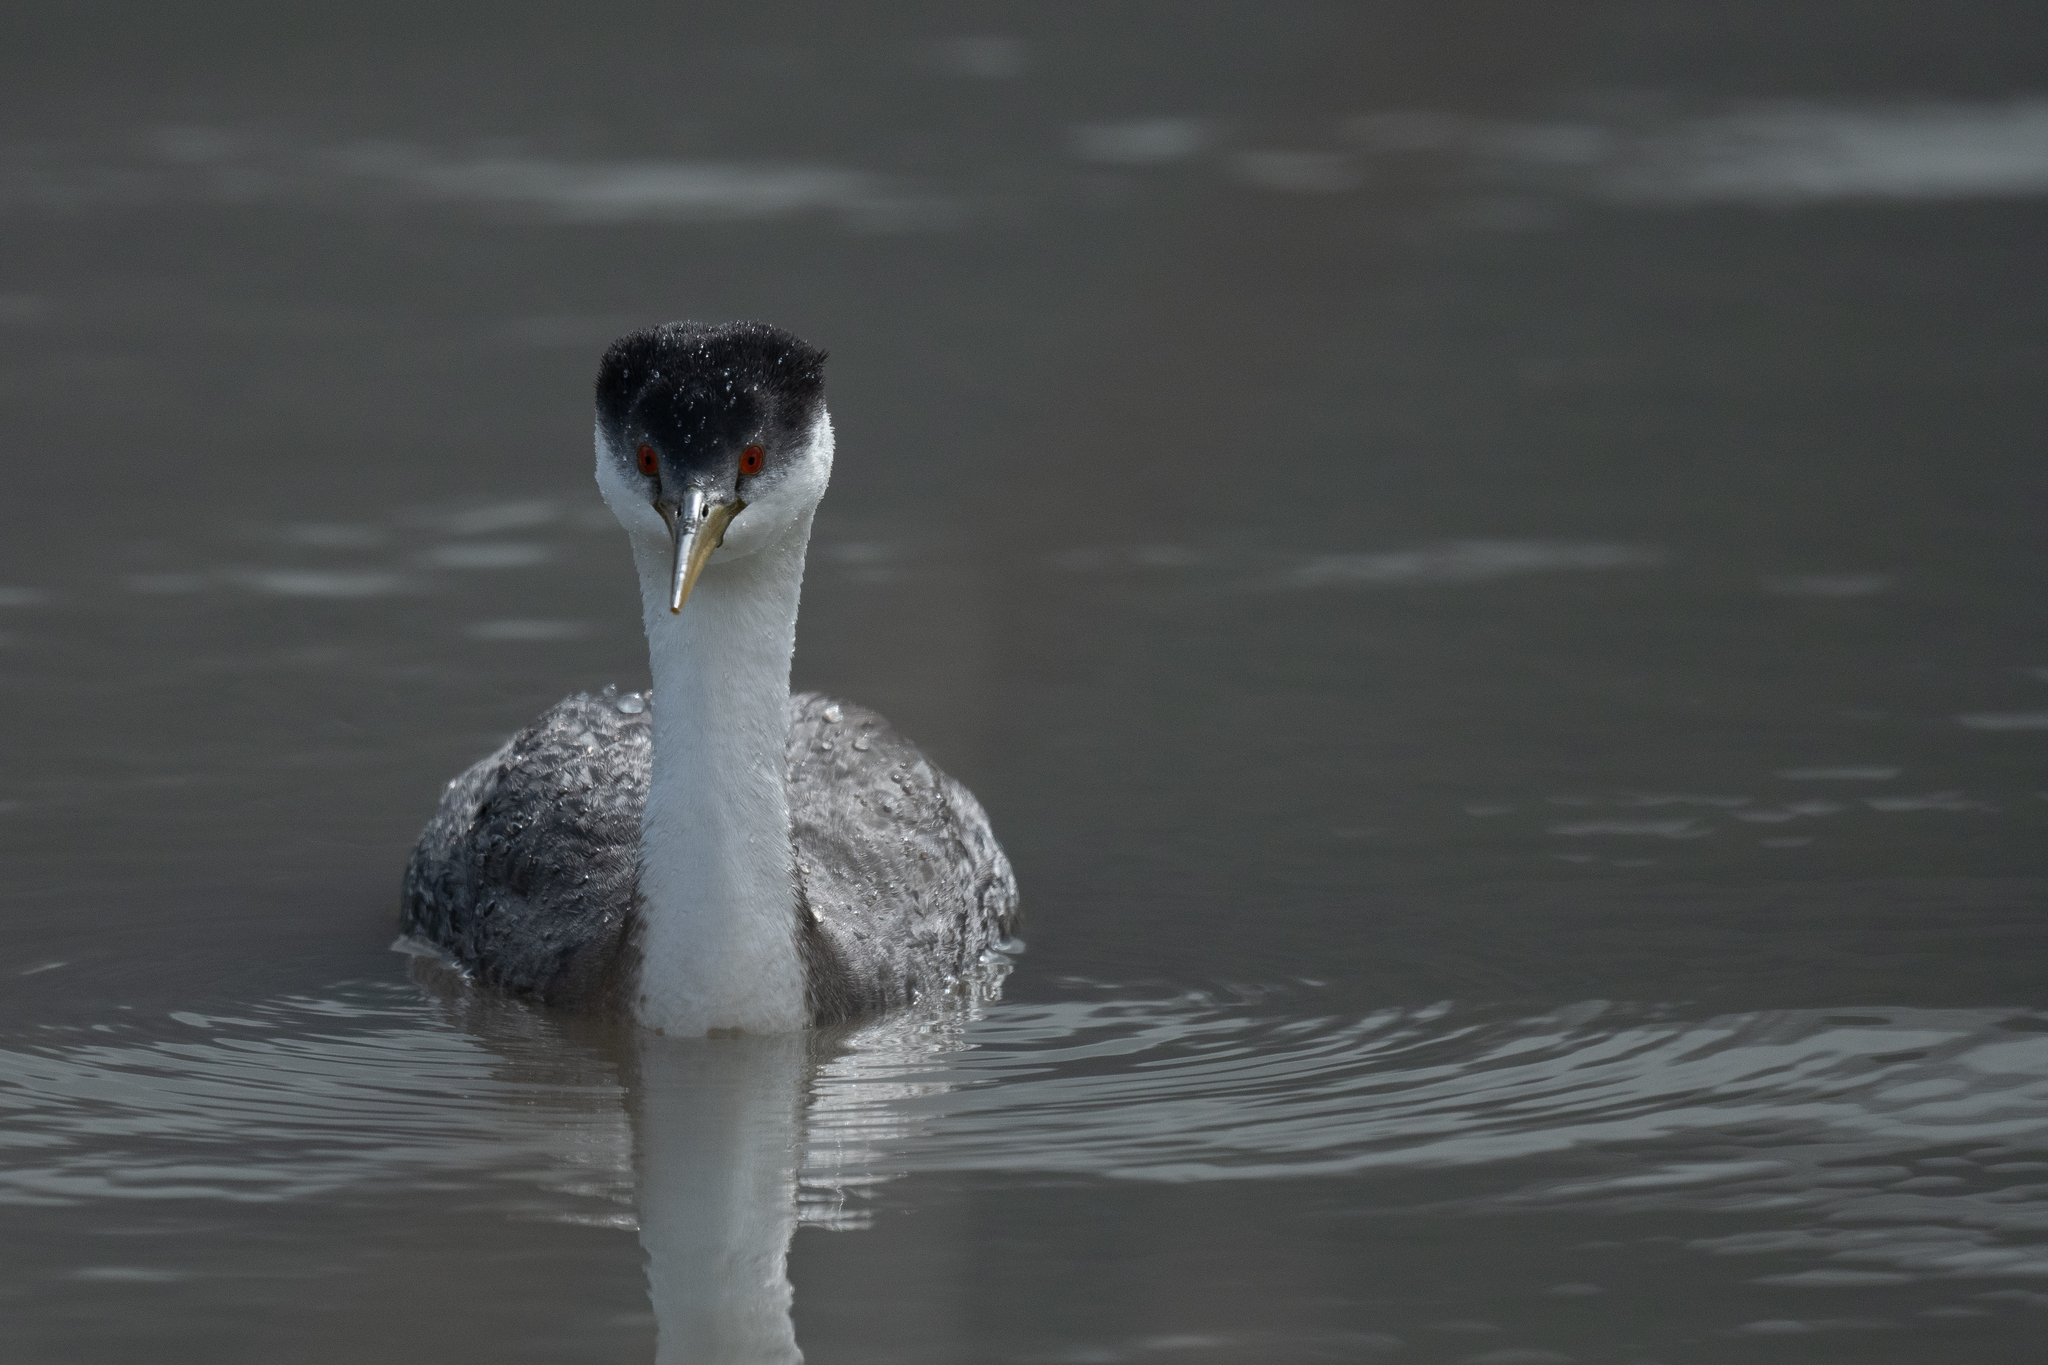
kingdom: Animalia
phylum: Chordata
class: Aves
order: Podicipediformes
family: Podicipedidae
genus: Aechmophorus
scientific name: Aechmophorus clarkii
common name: Clark's grebe
